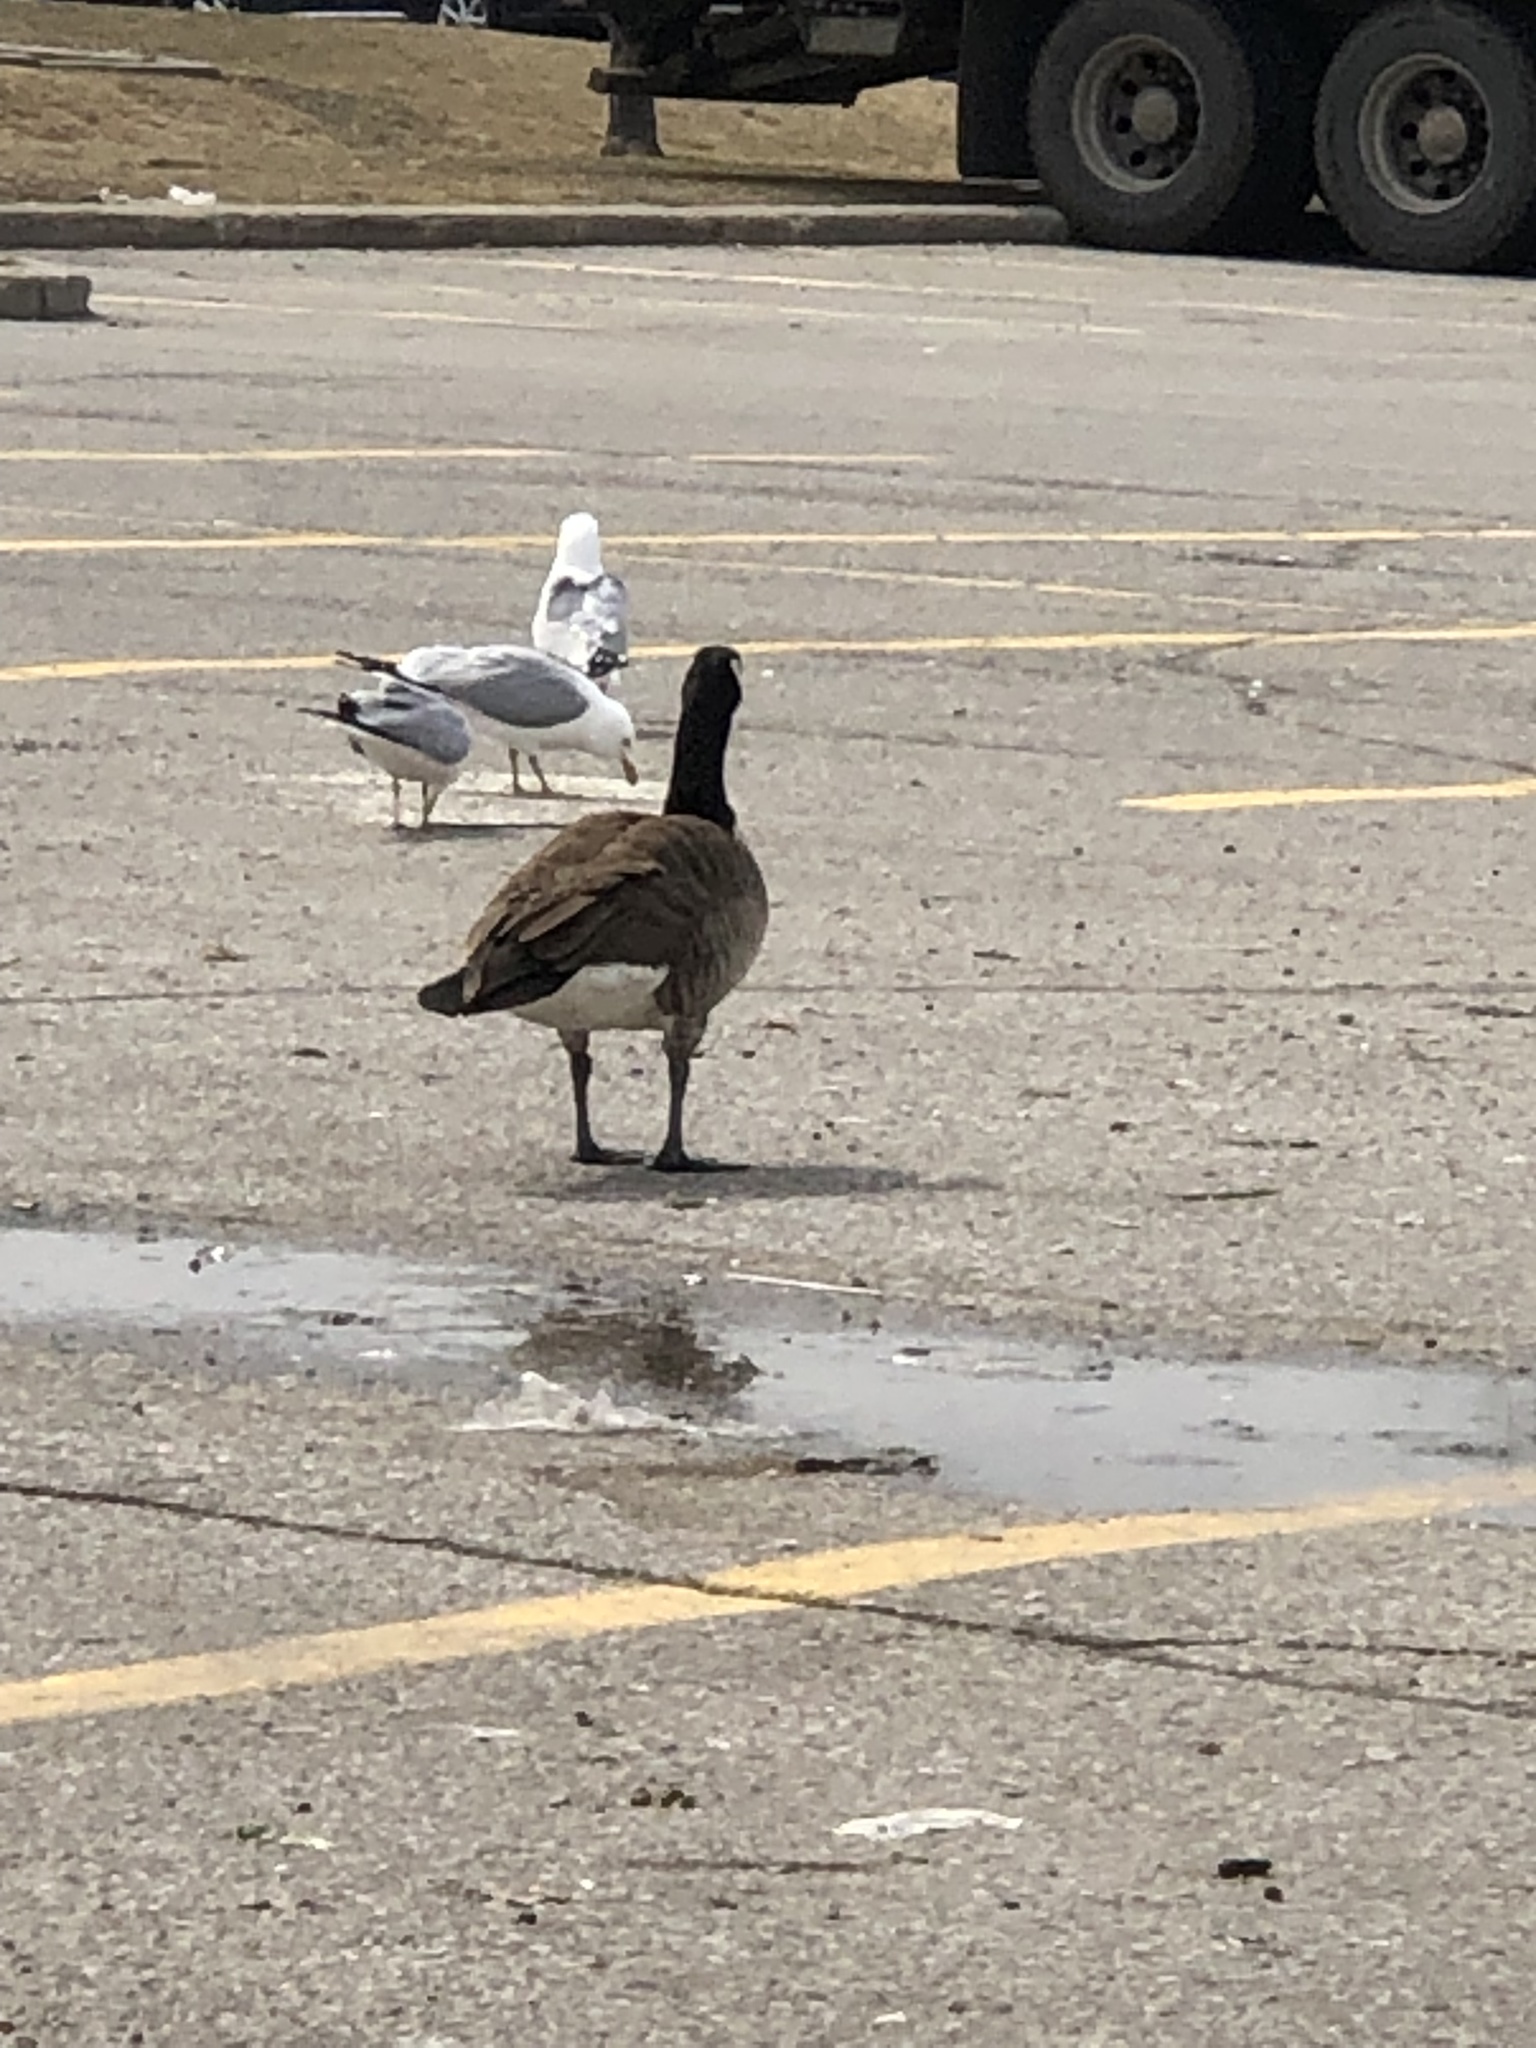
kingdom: Animalia
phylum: Chordata
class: Aves
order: Anseriformes
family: Anatidae
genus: Branta
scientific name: Branta canadensis
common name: Canada goose
